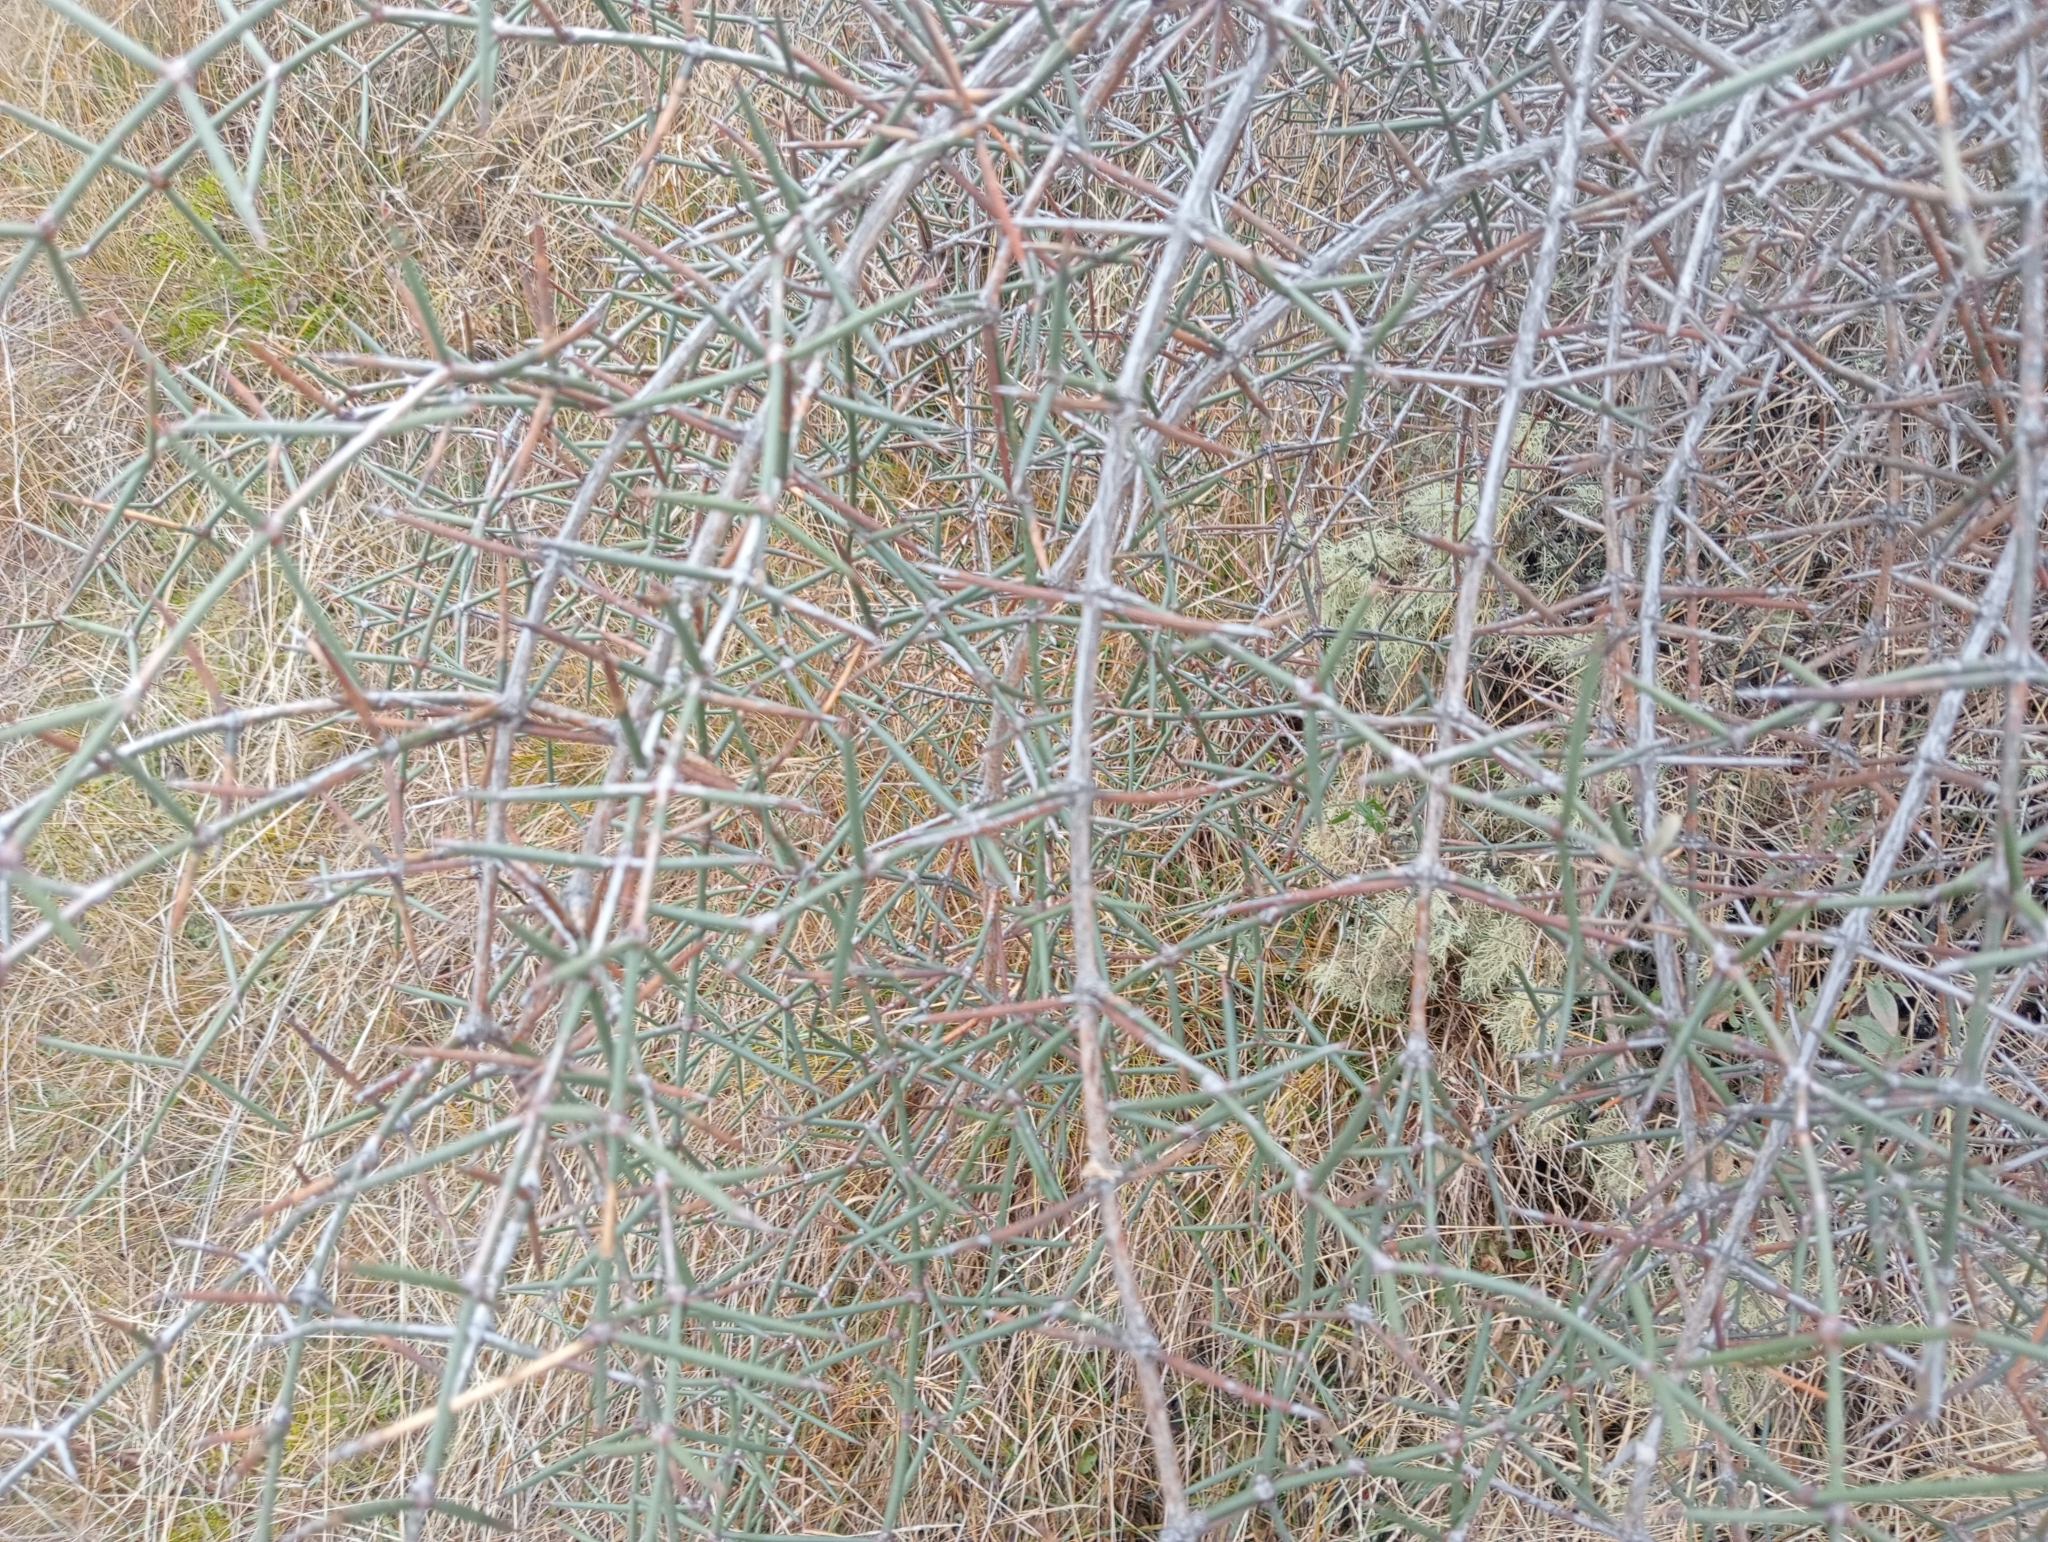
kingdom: Plantae
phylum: Tracheophyta
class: Magnoliopsida
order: Rosales
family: Rhamnaceae
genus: Discaria
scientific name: Discaria toumatou
